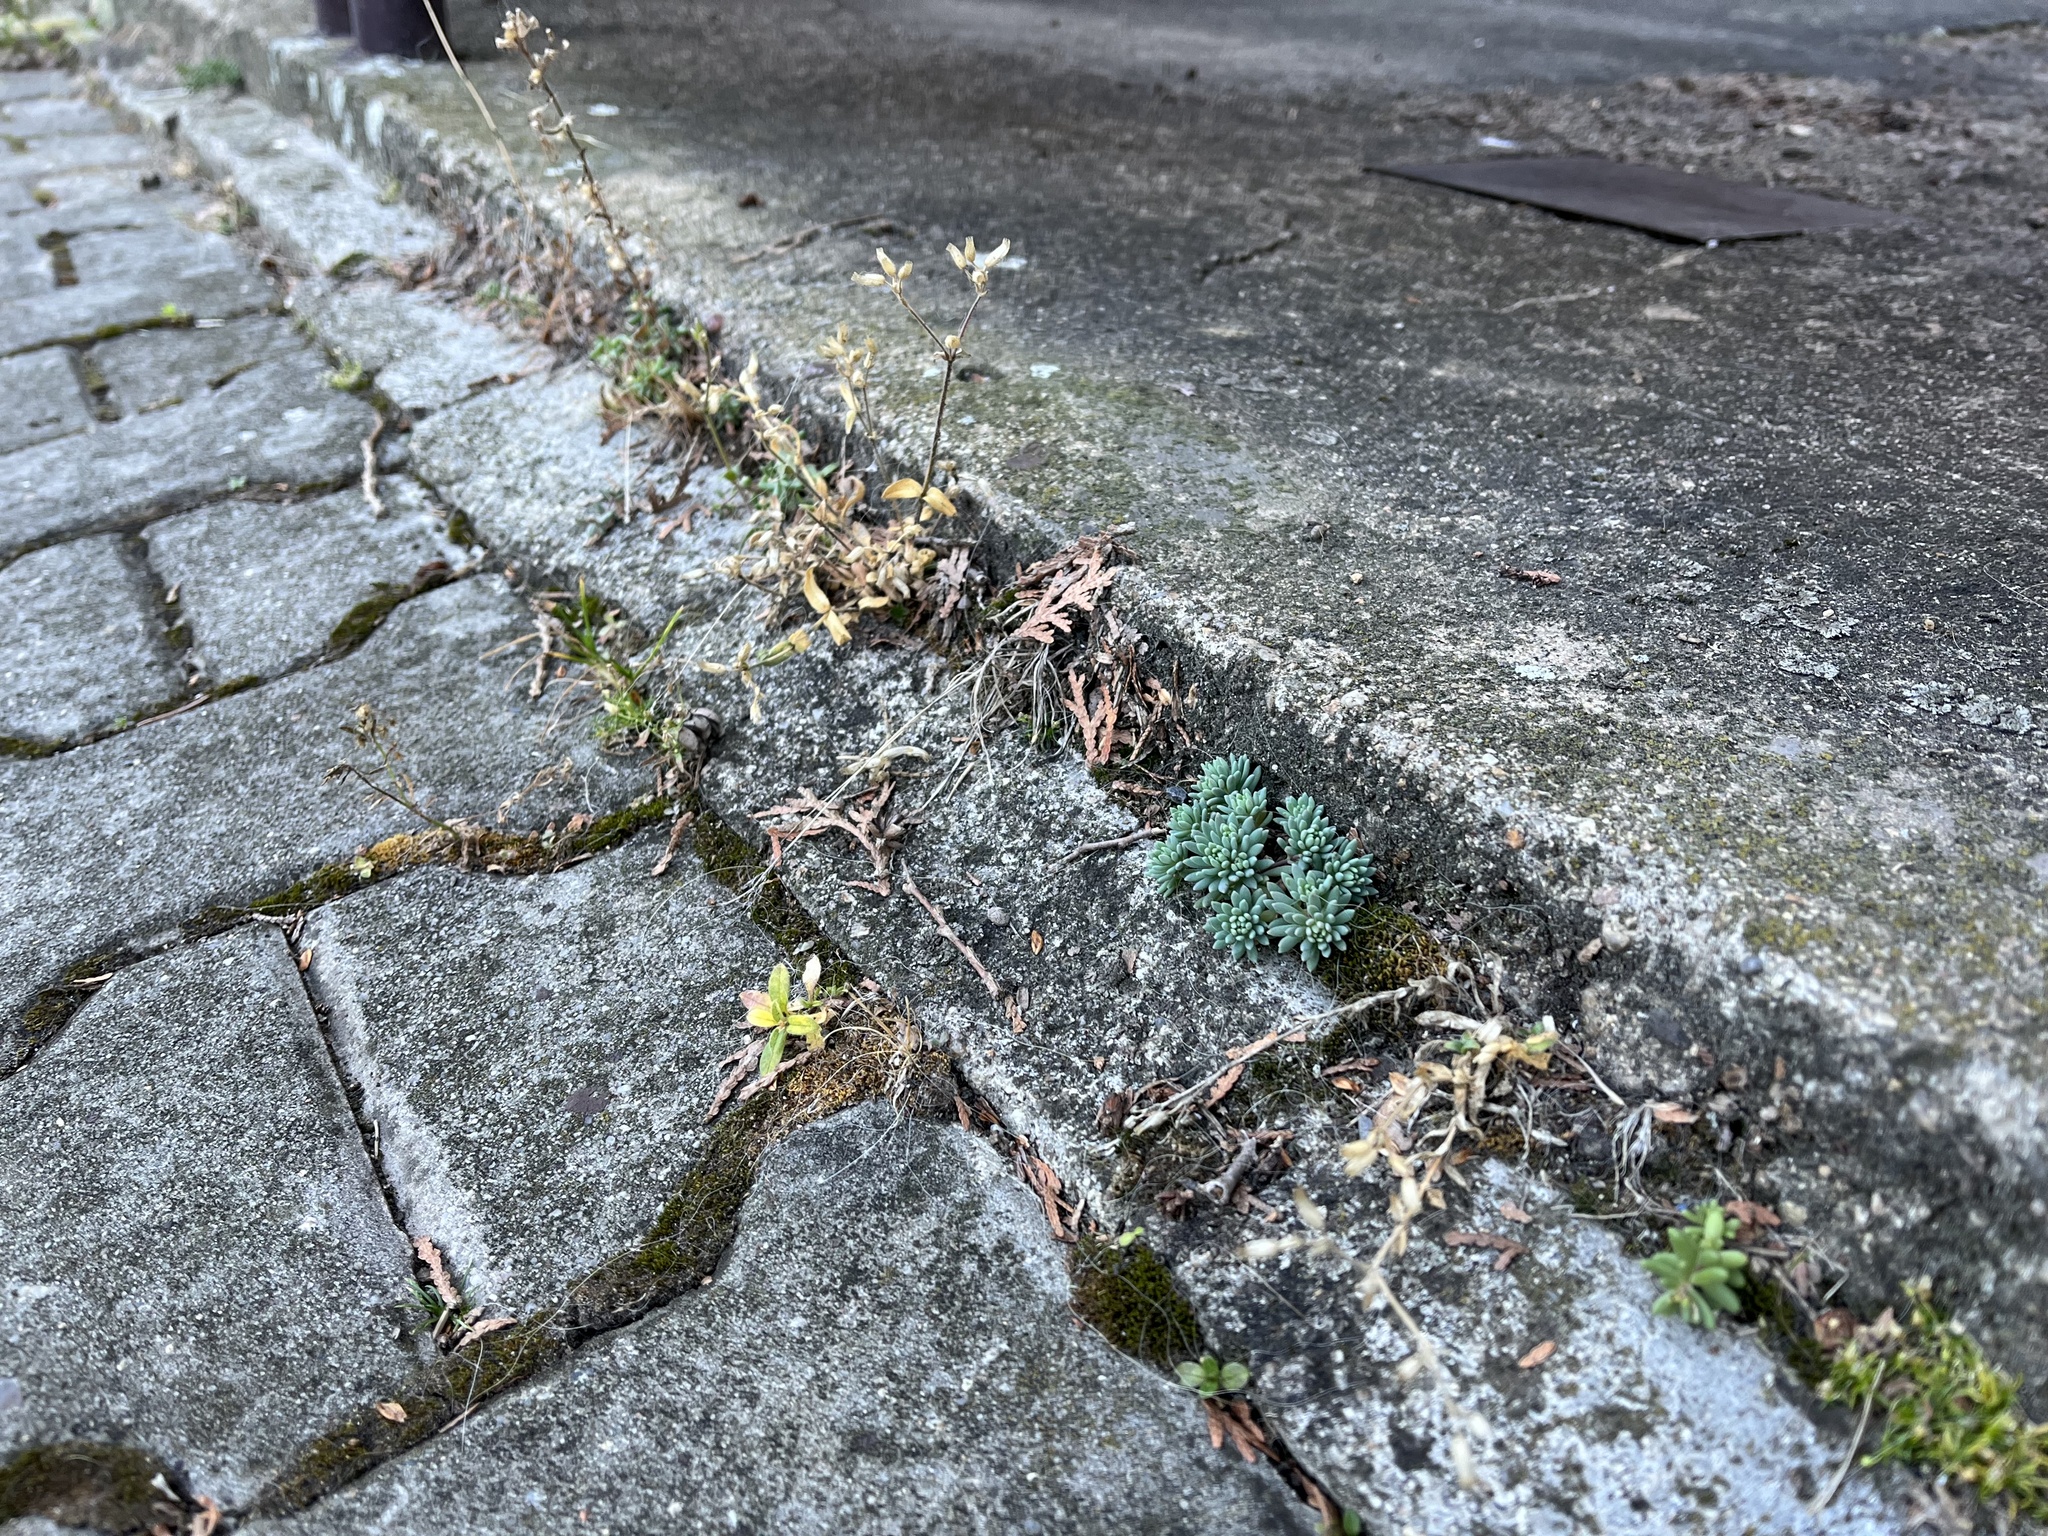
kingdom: Plantae
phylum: Tracheophyta
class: Magnoliopsida
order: Saxifragales
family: Crassulaceae
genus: Sedum
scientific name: Sedum hispanicum
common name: Spanish stonecrop
